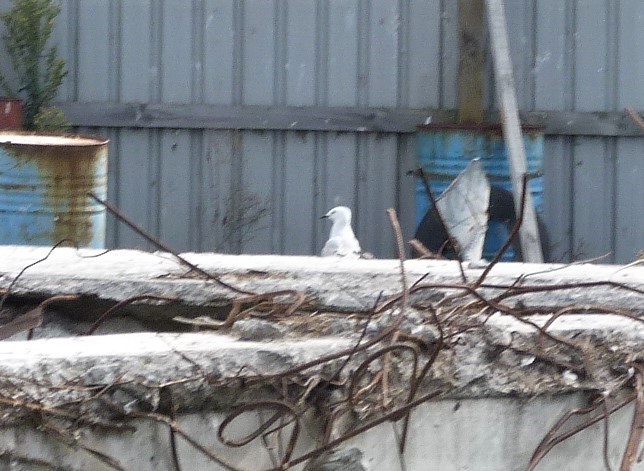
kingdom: Animalia
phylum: Chordata
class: Aves
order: Charadriiformes
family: Laridae
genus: Chroicocephalus
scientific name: Chroicocephalus bulleri
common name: Black-billed gull
